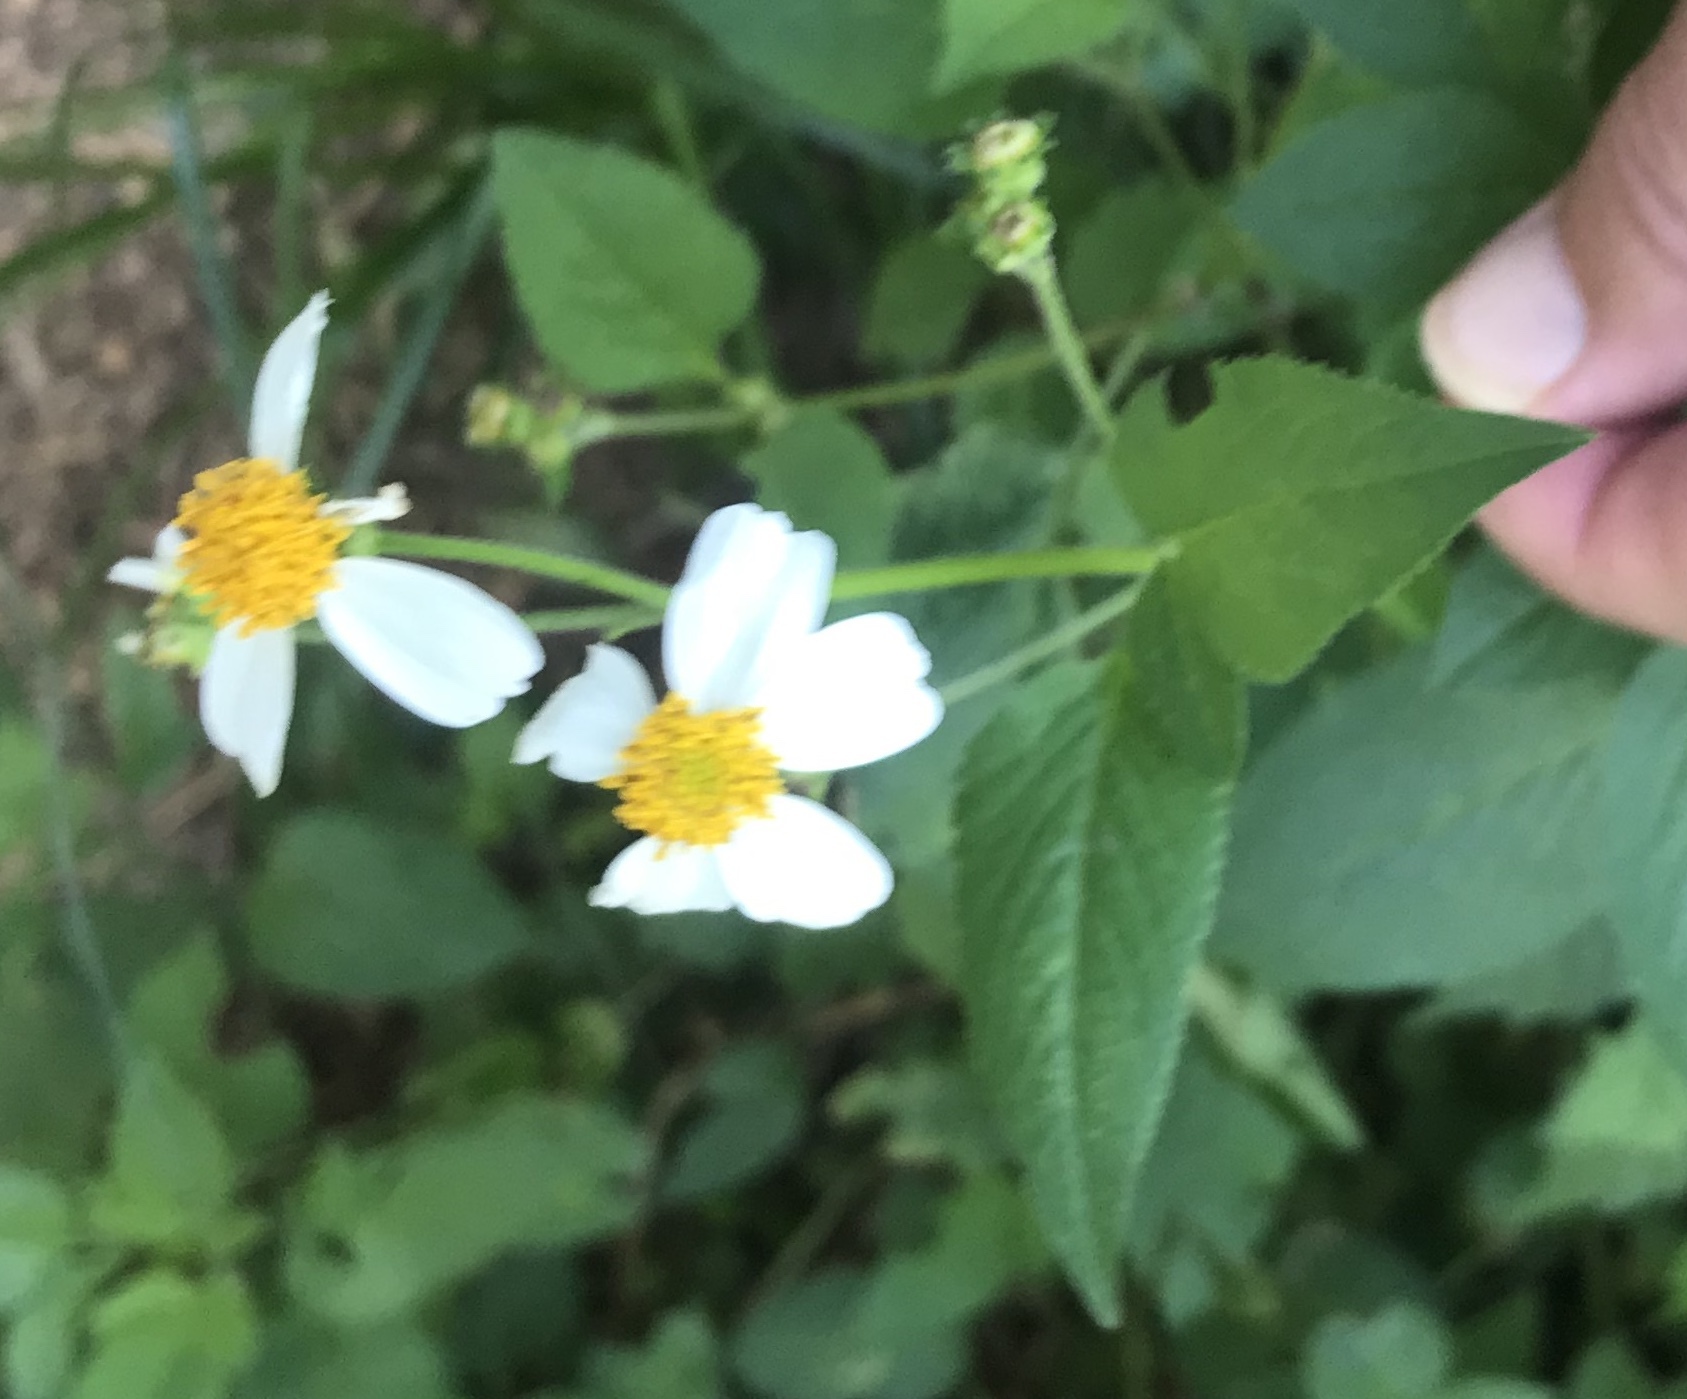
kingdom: Plantae
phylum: Tracheophyta
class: Magnoliopsida
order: Asterales
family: Asteraceae
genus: Bidens
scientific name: Bidens alba
